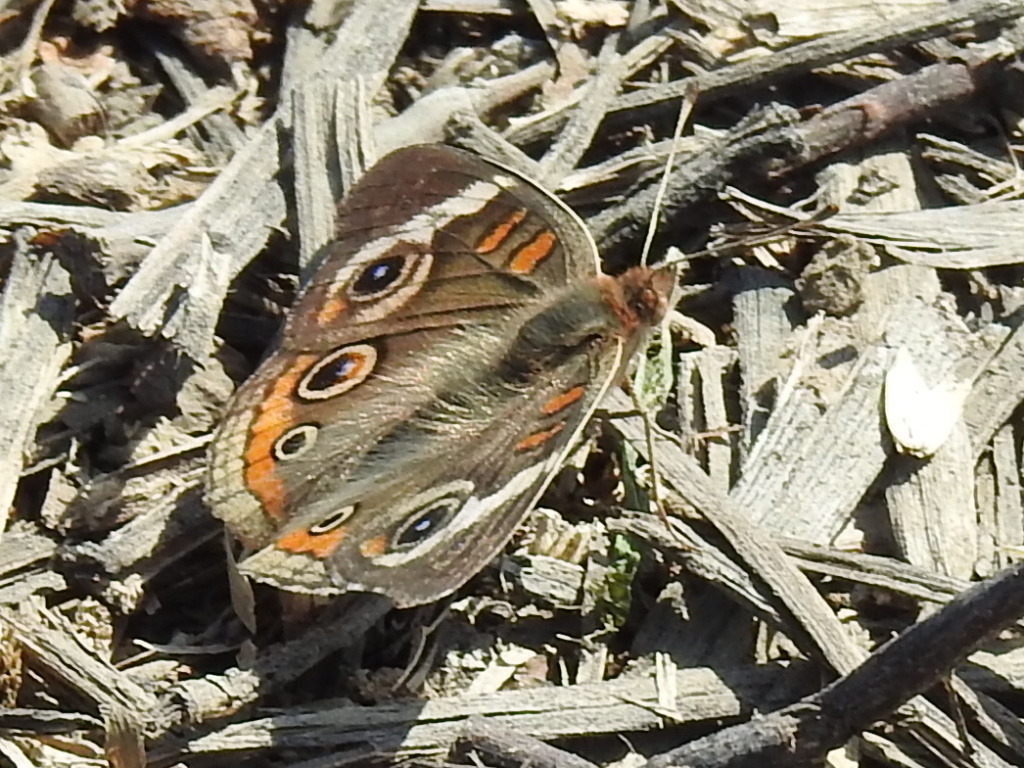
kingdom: Animalia
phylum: Arthropoda
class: Insecta
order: Lepidoptera
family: Nymphalidae
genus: Junonia
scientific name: Junonia coenia
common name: Common buckeye
